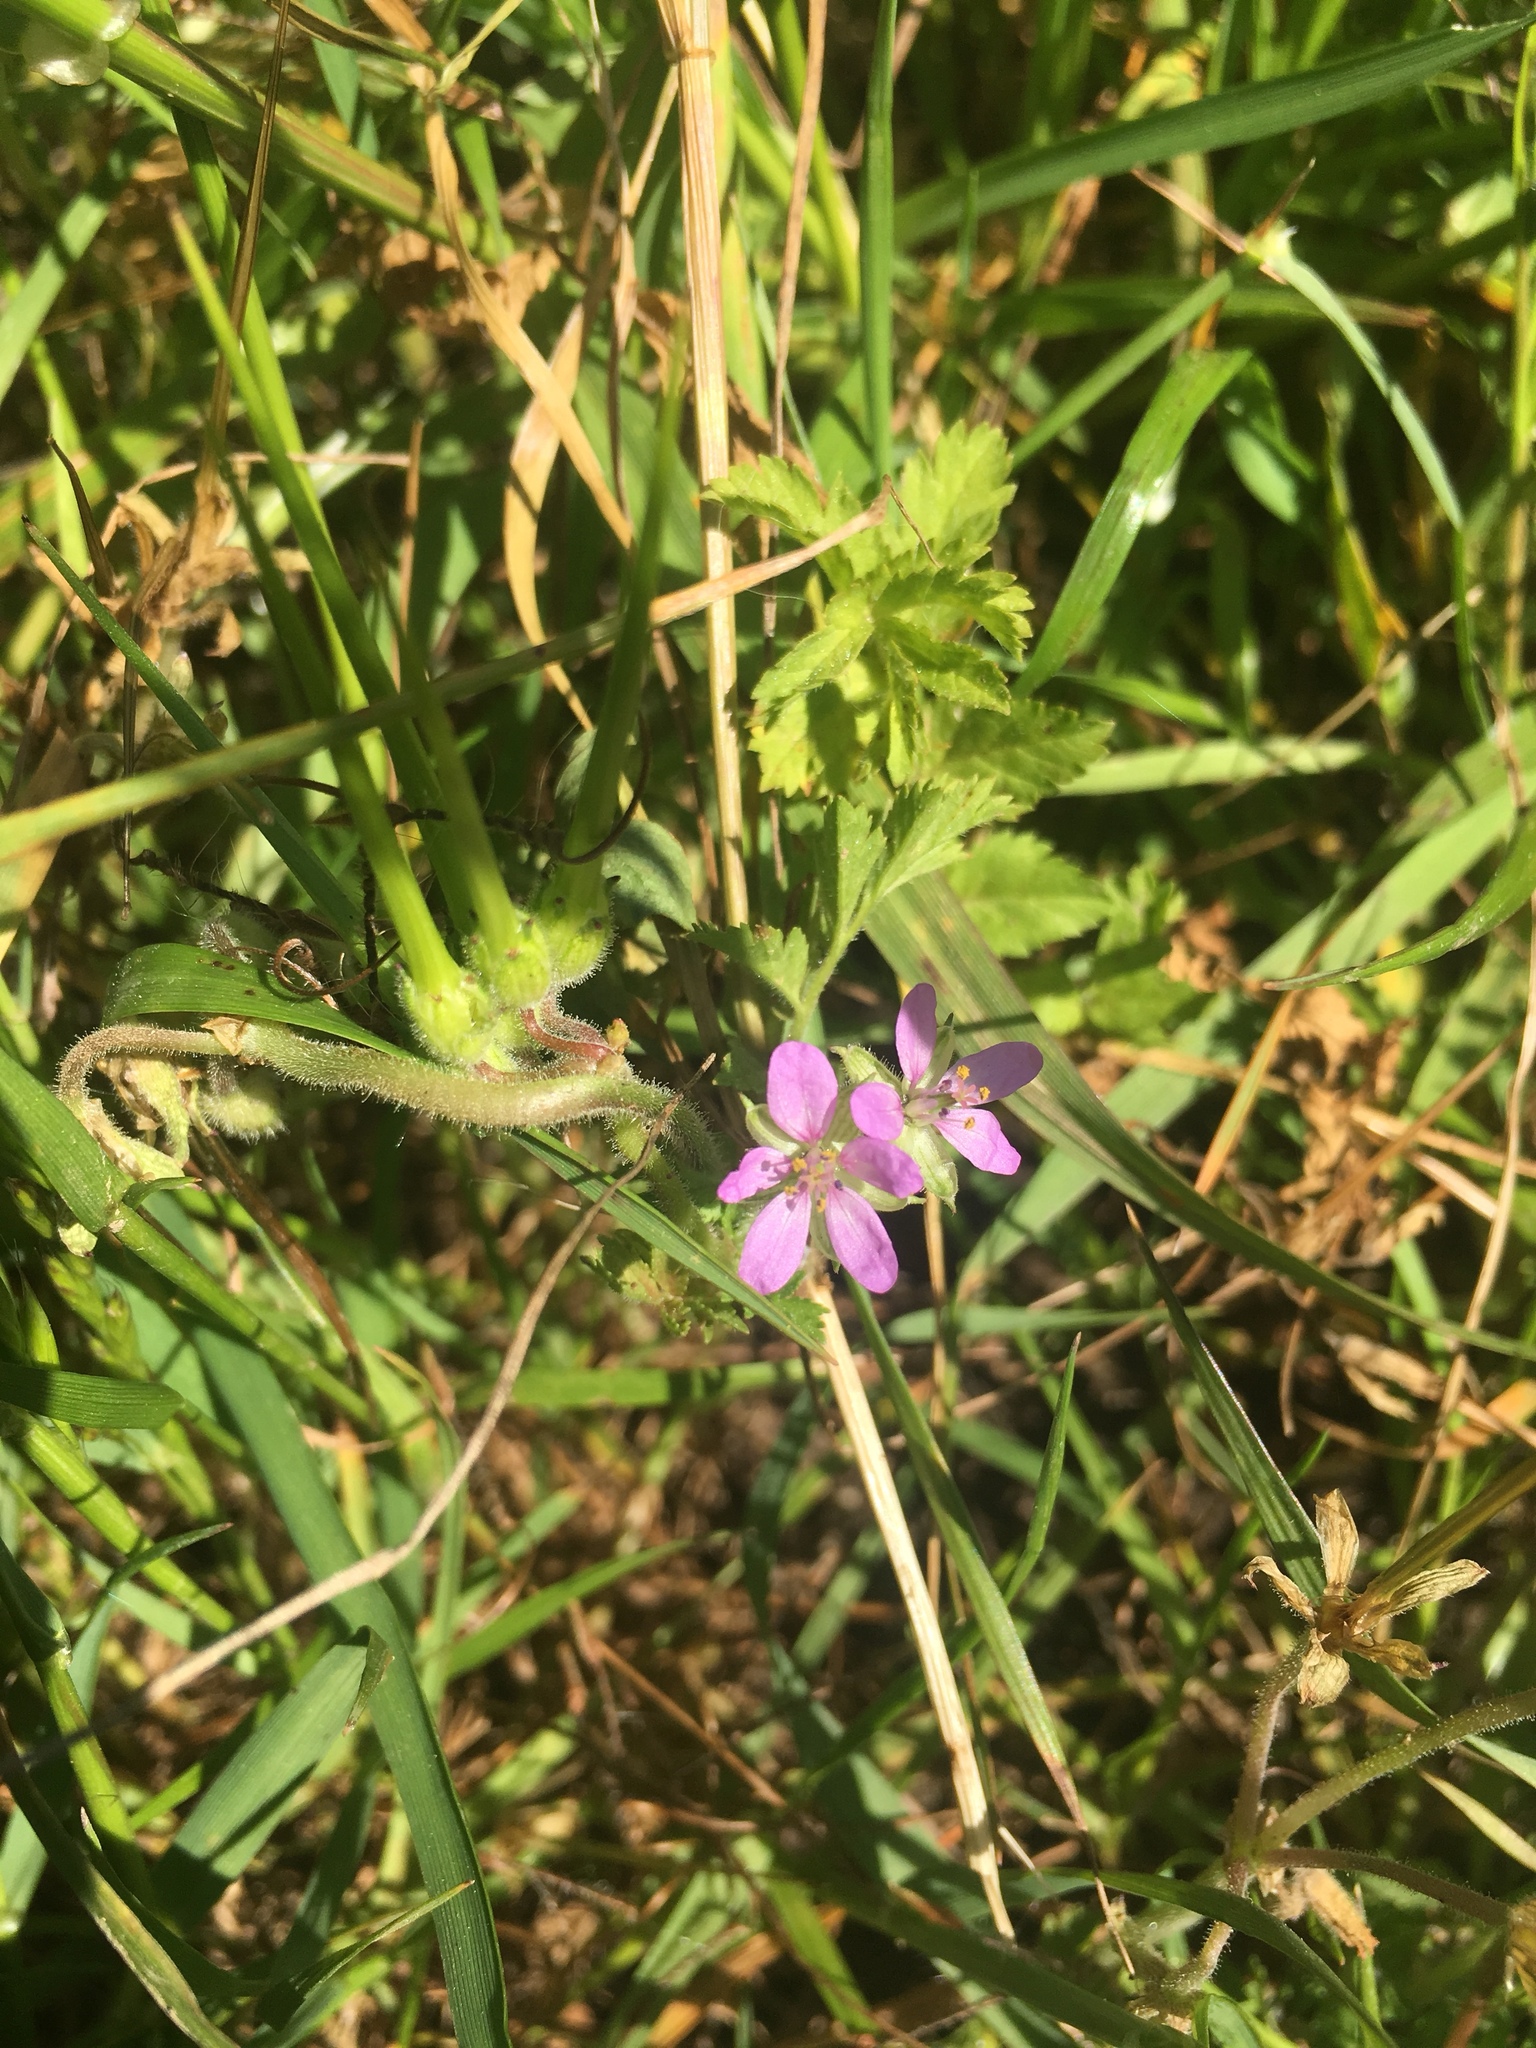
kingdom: Plantae
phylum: Tracheophyta
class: Magnoliopsida
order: Geraniales
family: Geraniaceae
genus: Erodium
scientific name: Erodium cicutarium
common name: Common stork's-bill
